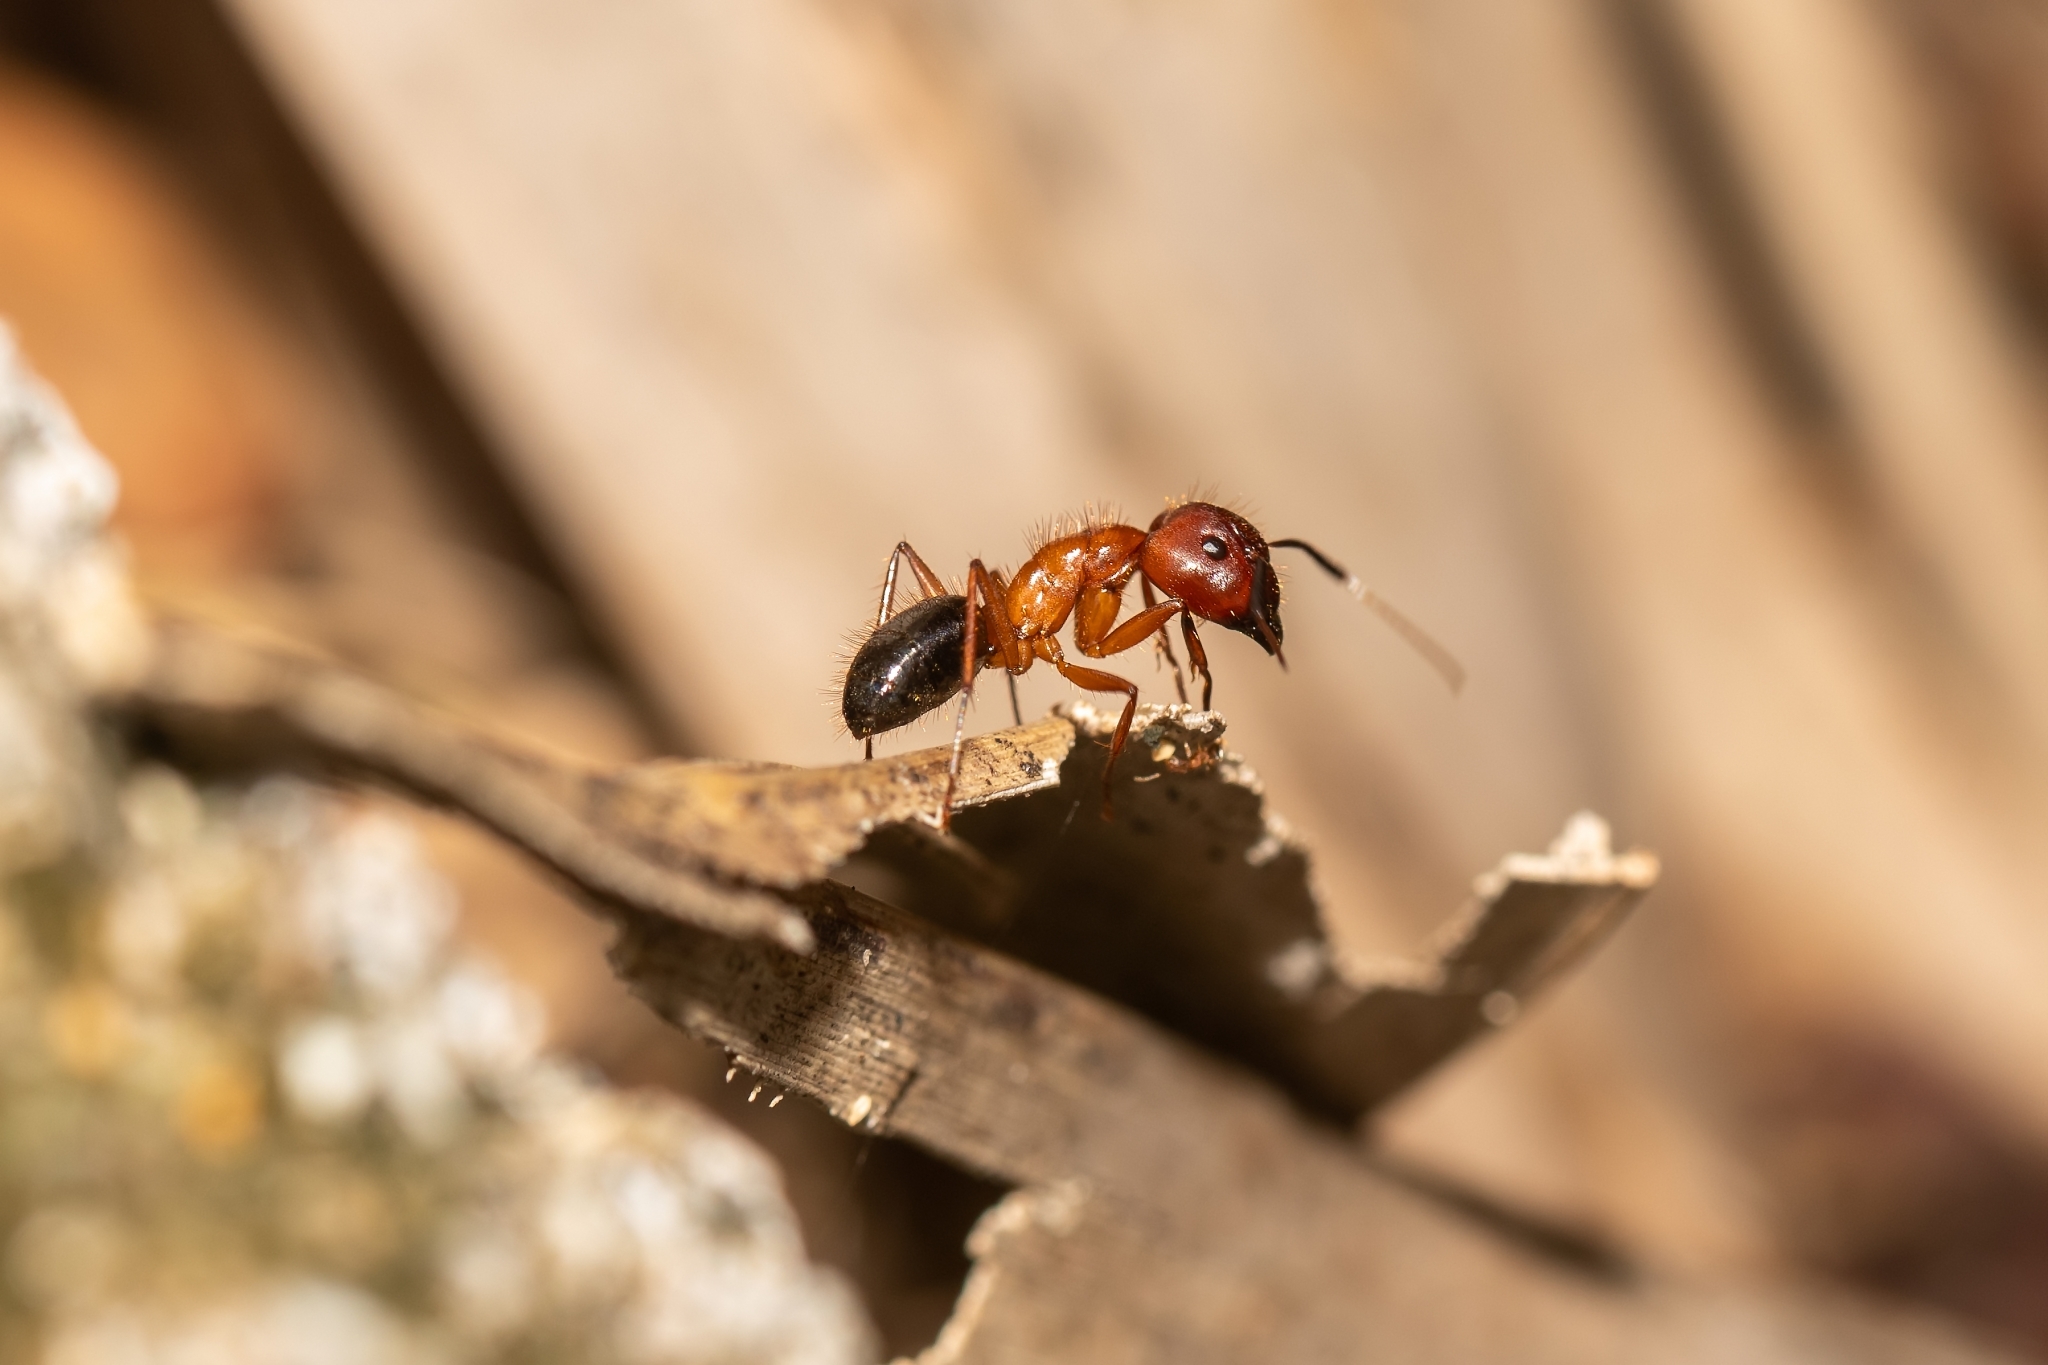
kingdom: Animalia
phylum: Arthropoda
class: Insecta
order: Hymenoptera
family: Formicidae
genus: Camponotus
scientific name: Camponotus floridanus
